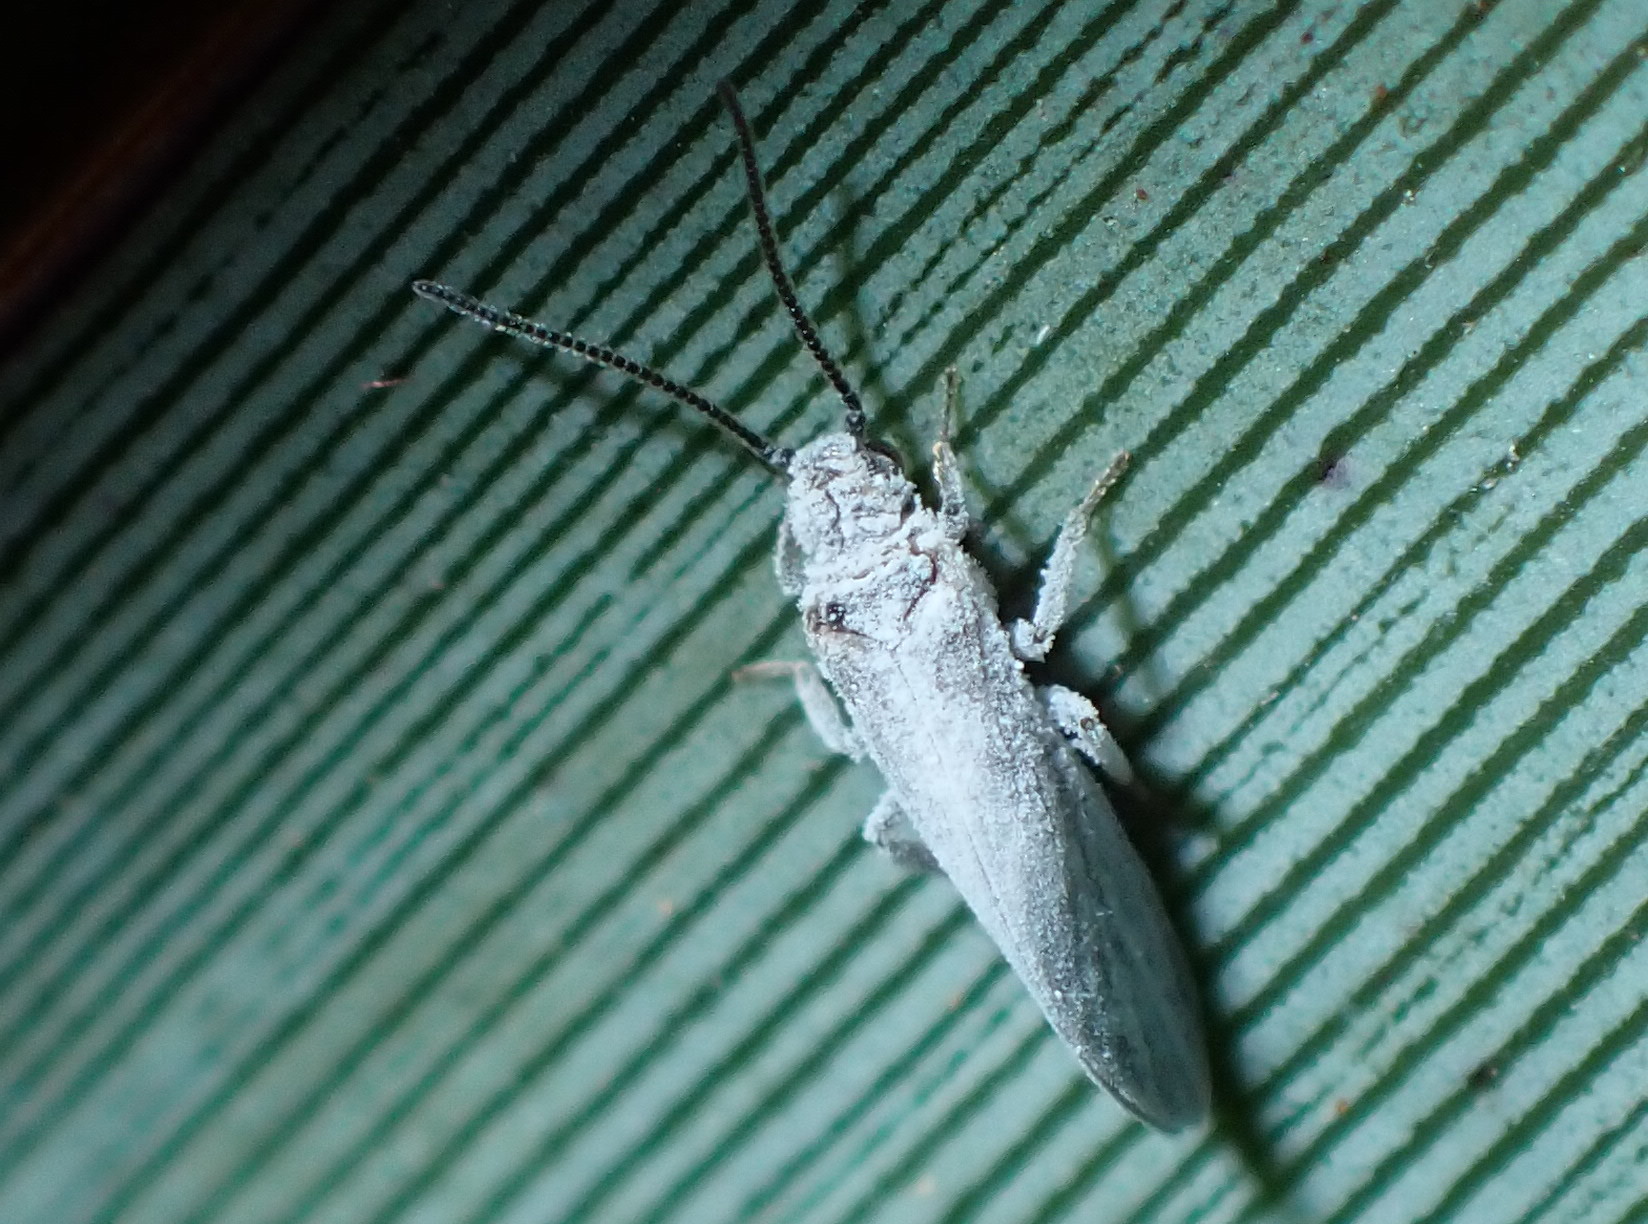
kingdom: Animalia
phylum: Arthropoda
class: Insecta
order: Neuroptera
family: Coniopterygidae
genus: Cryptoscenea
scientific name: Cryptoscenea australiensis
